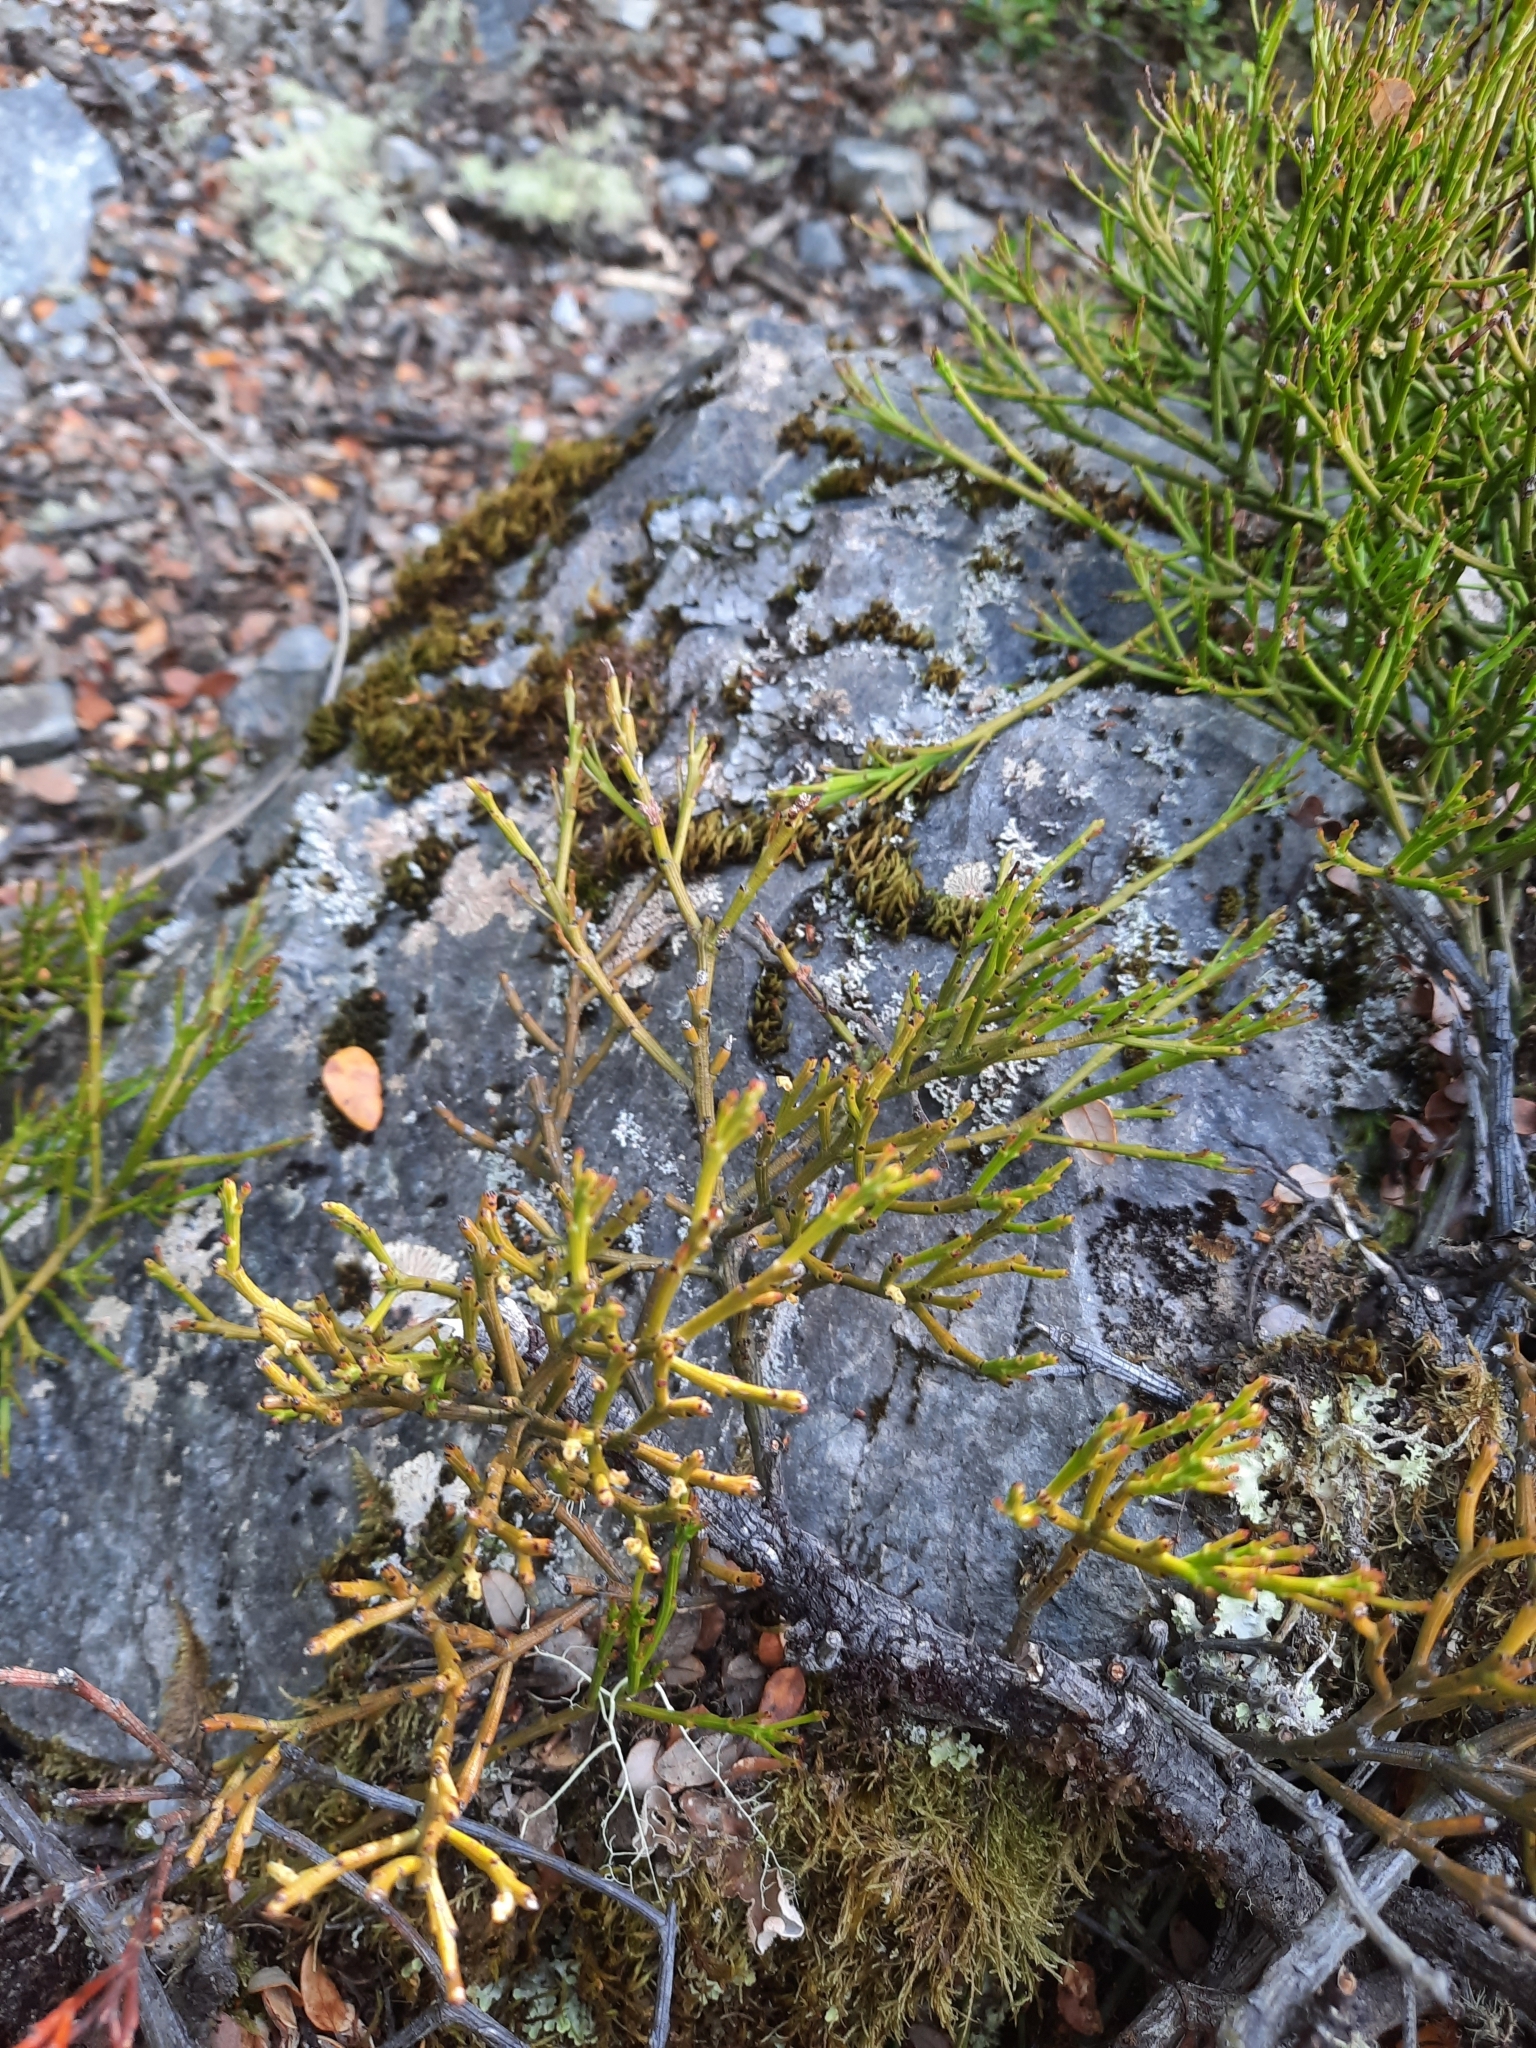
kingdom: Plantae
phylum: Tracheophyta
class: Magnoliopsida
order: Santalales
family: Santalaceae
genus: Exocarpos
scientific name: Exocarpos bidwillii
